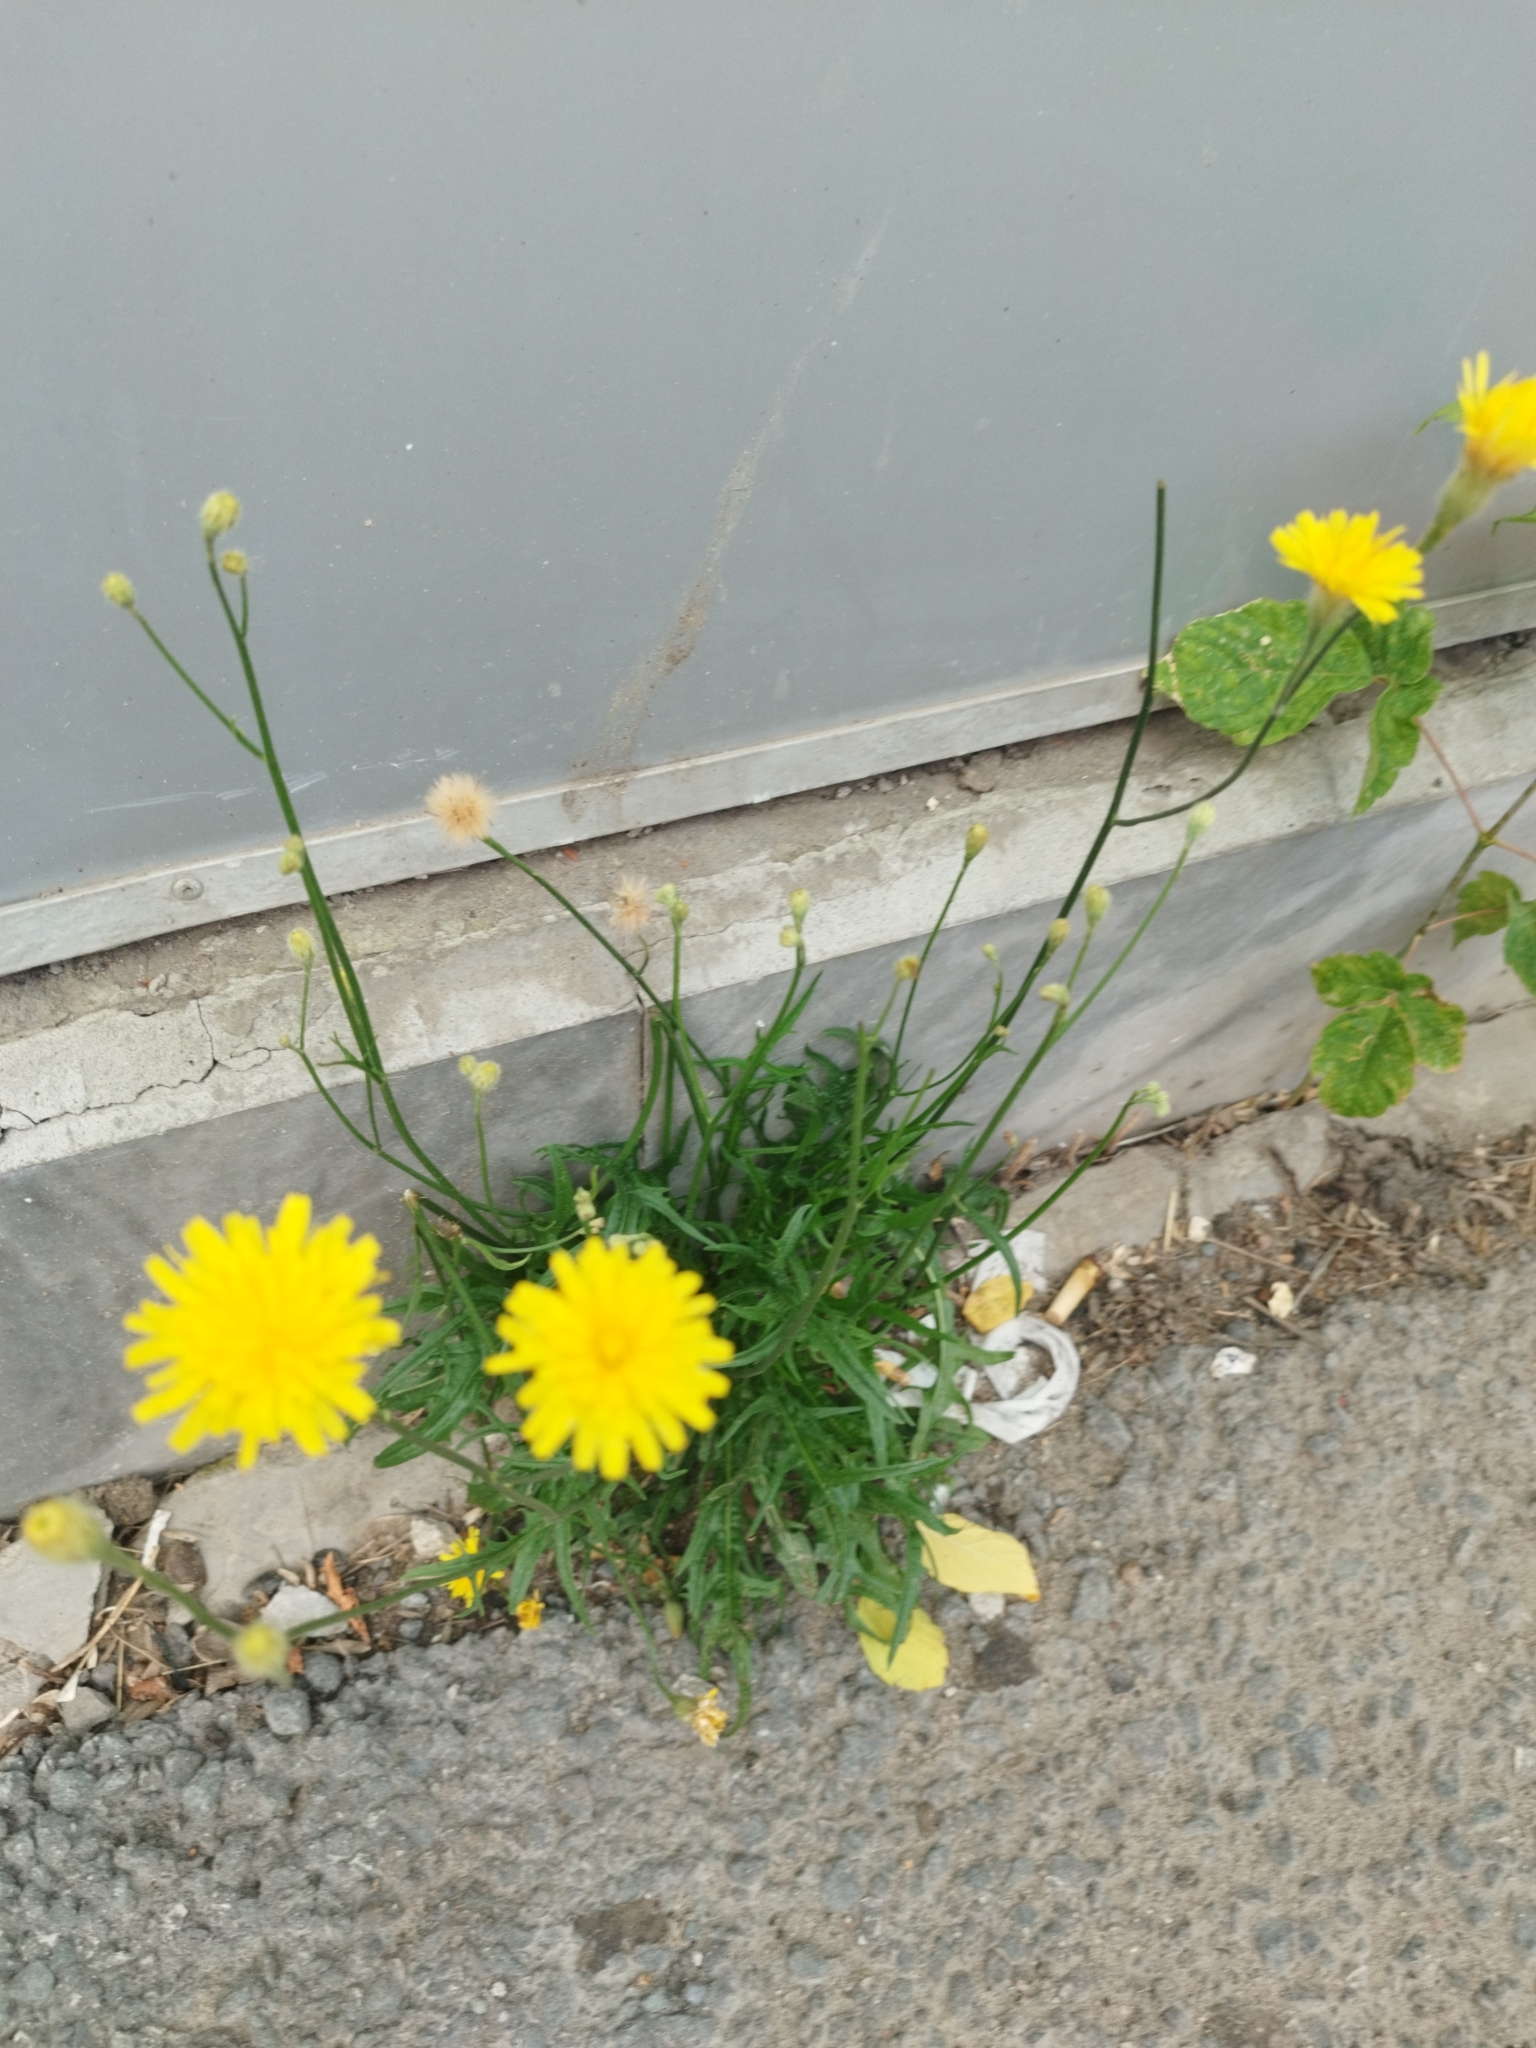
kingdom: Plantae
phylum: Tracheophyta
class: Magnoliopsida
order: Asterales
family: Asteraceae
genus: Scorzoneroides
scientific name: Scorzoneroides autumnalis
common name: Autumn hawkbit
